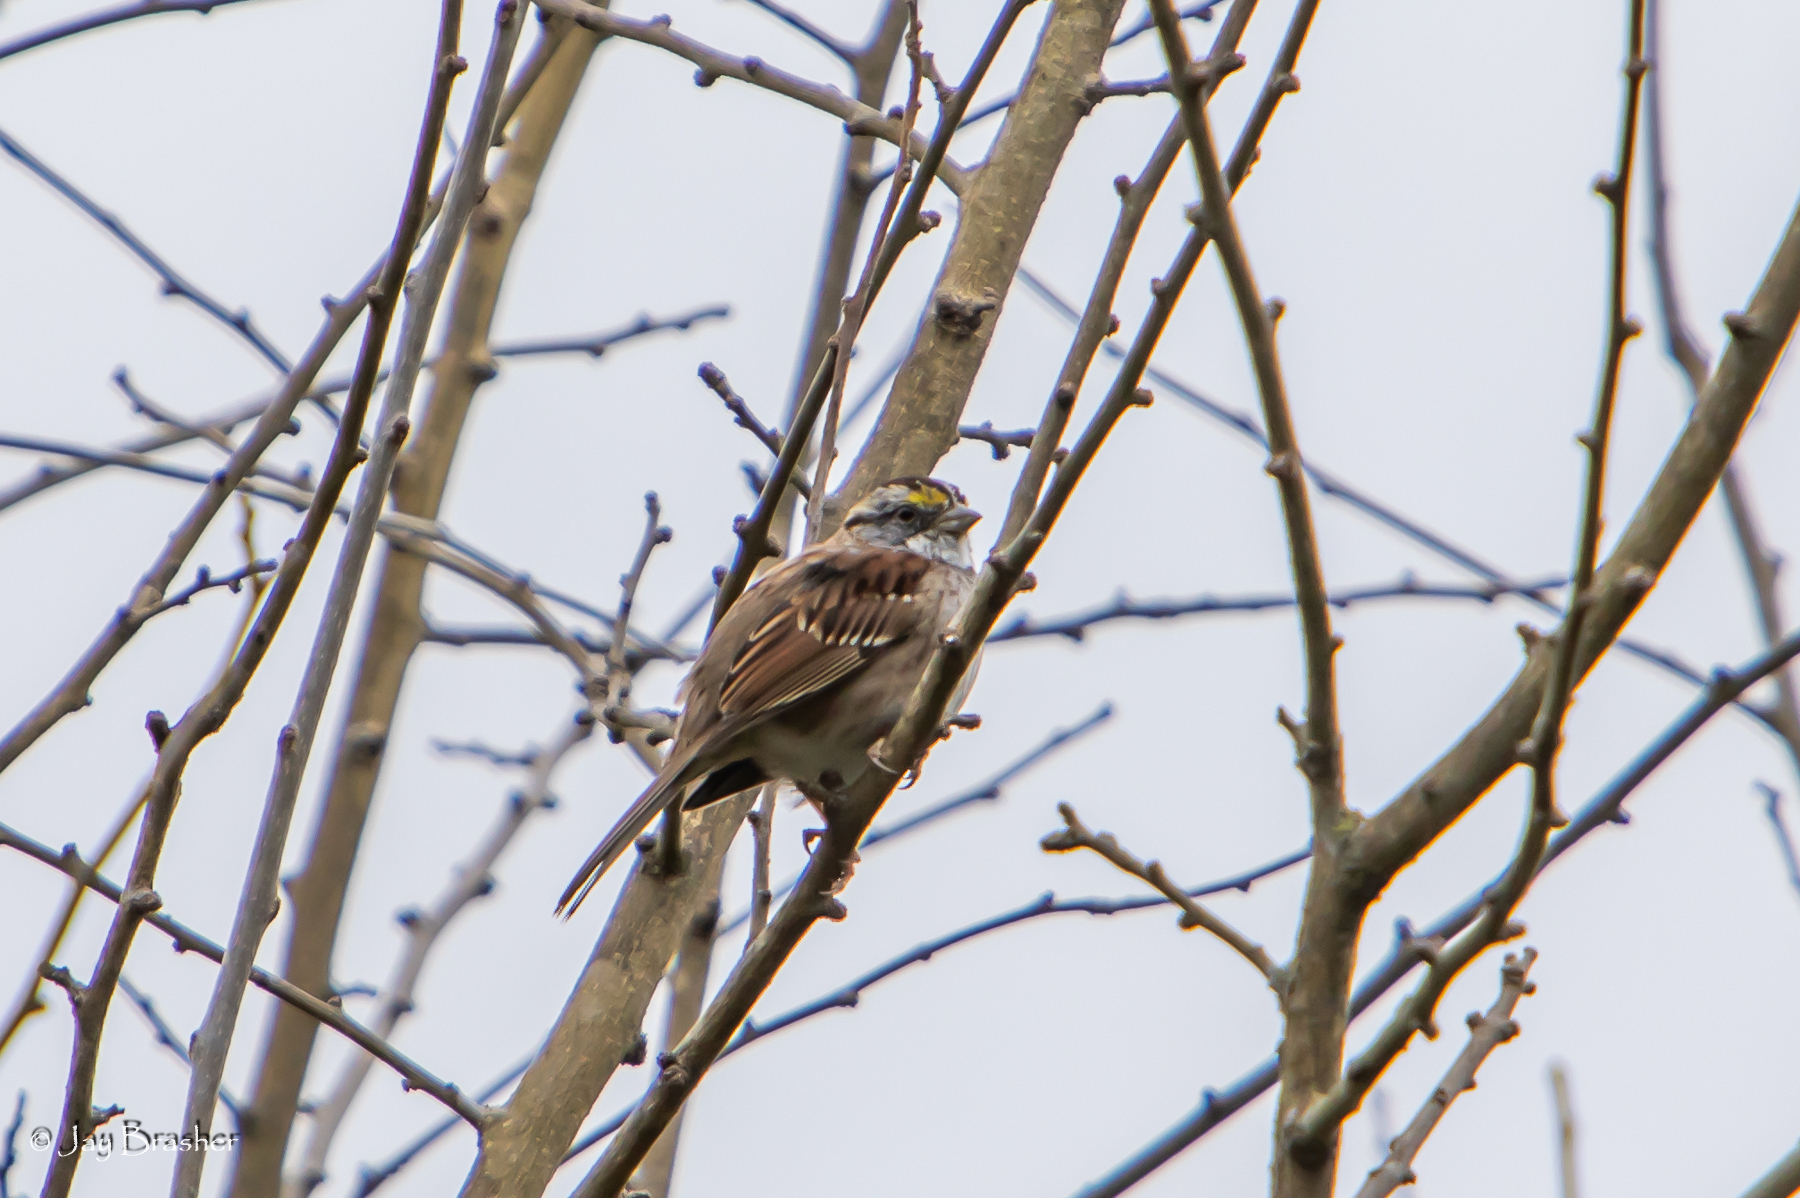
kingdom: Animalia
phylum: Chordata
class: Aves
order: Passeriformes
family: Passerellidae
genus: Zonotrichia
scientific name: Zonotrichia albicollis
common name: White-throated sparrow
